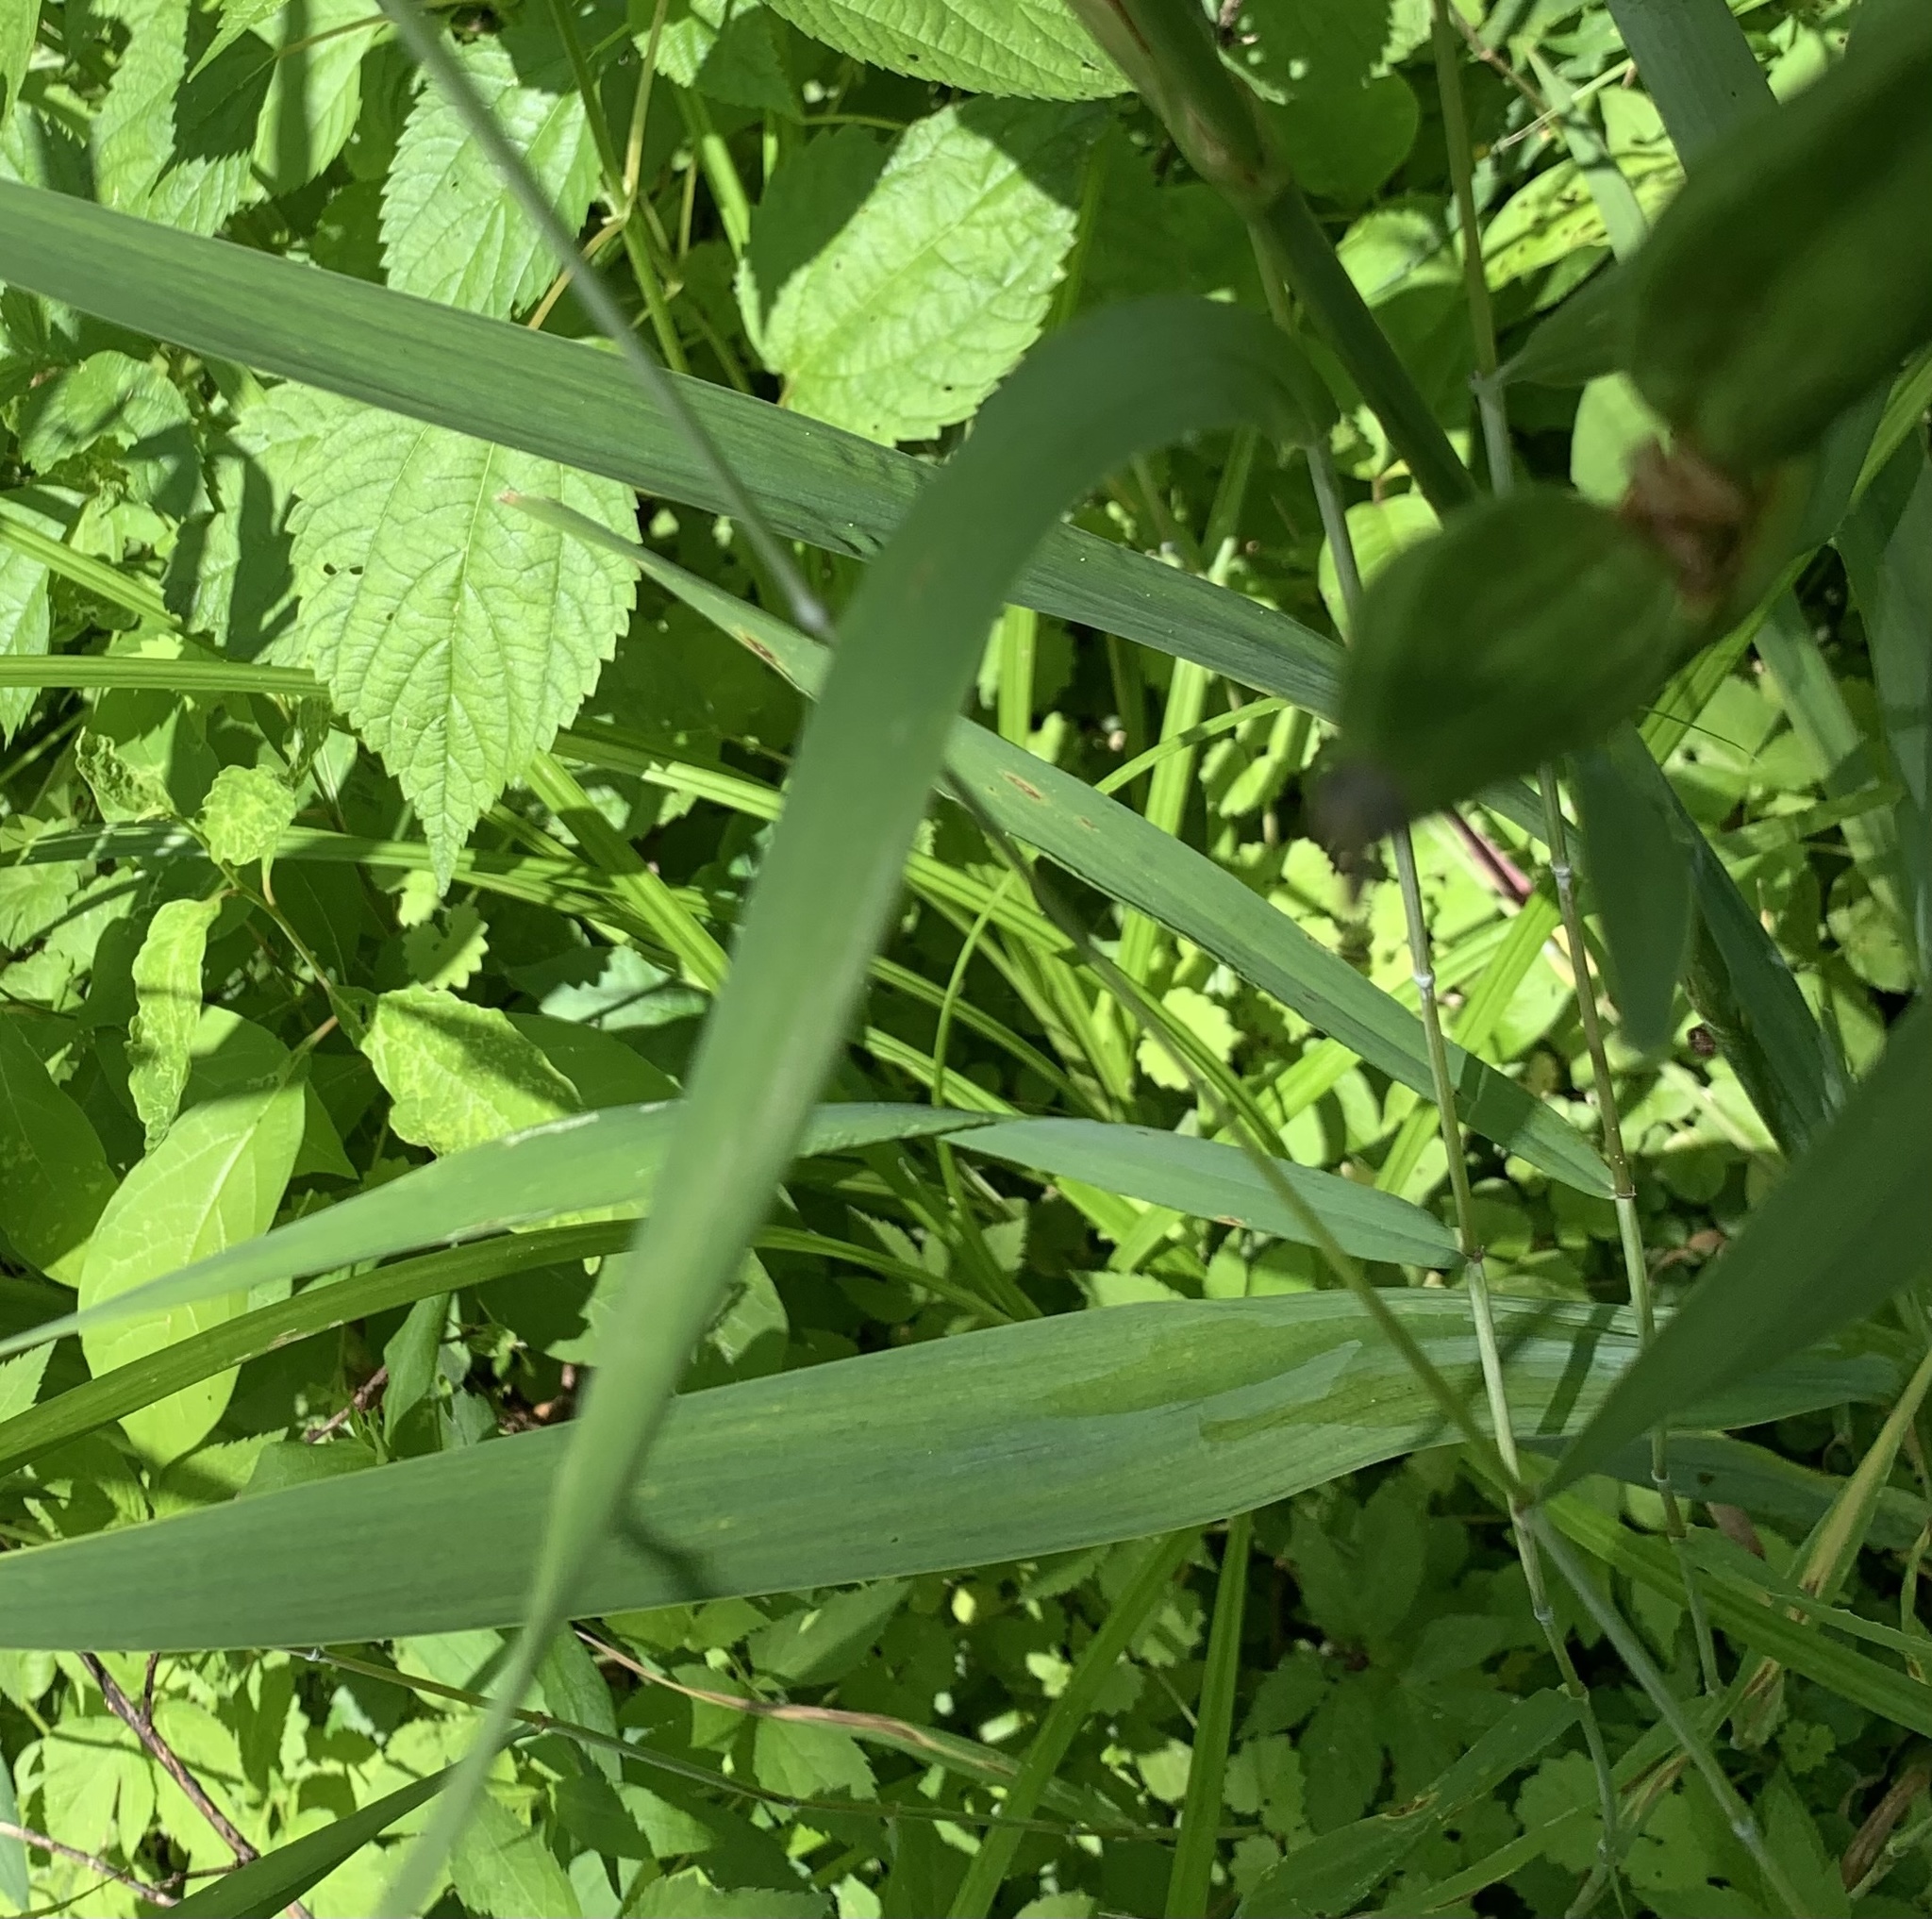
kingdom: Plantae
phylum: Tracheophyta
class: Liliopsida
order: Poales
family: Poaceae
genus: Elymus
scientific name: Elymus macgregorii
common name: Early wild rye
